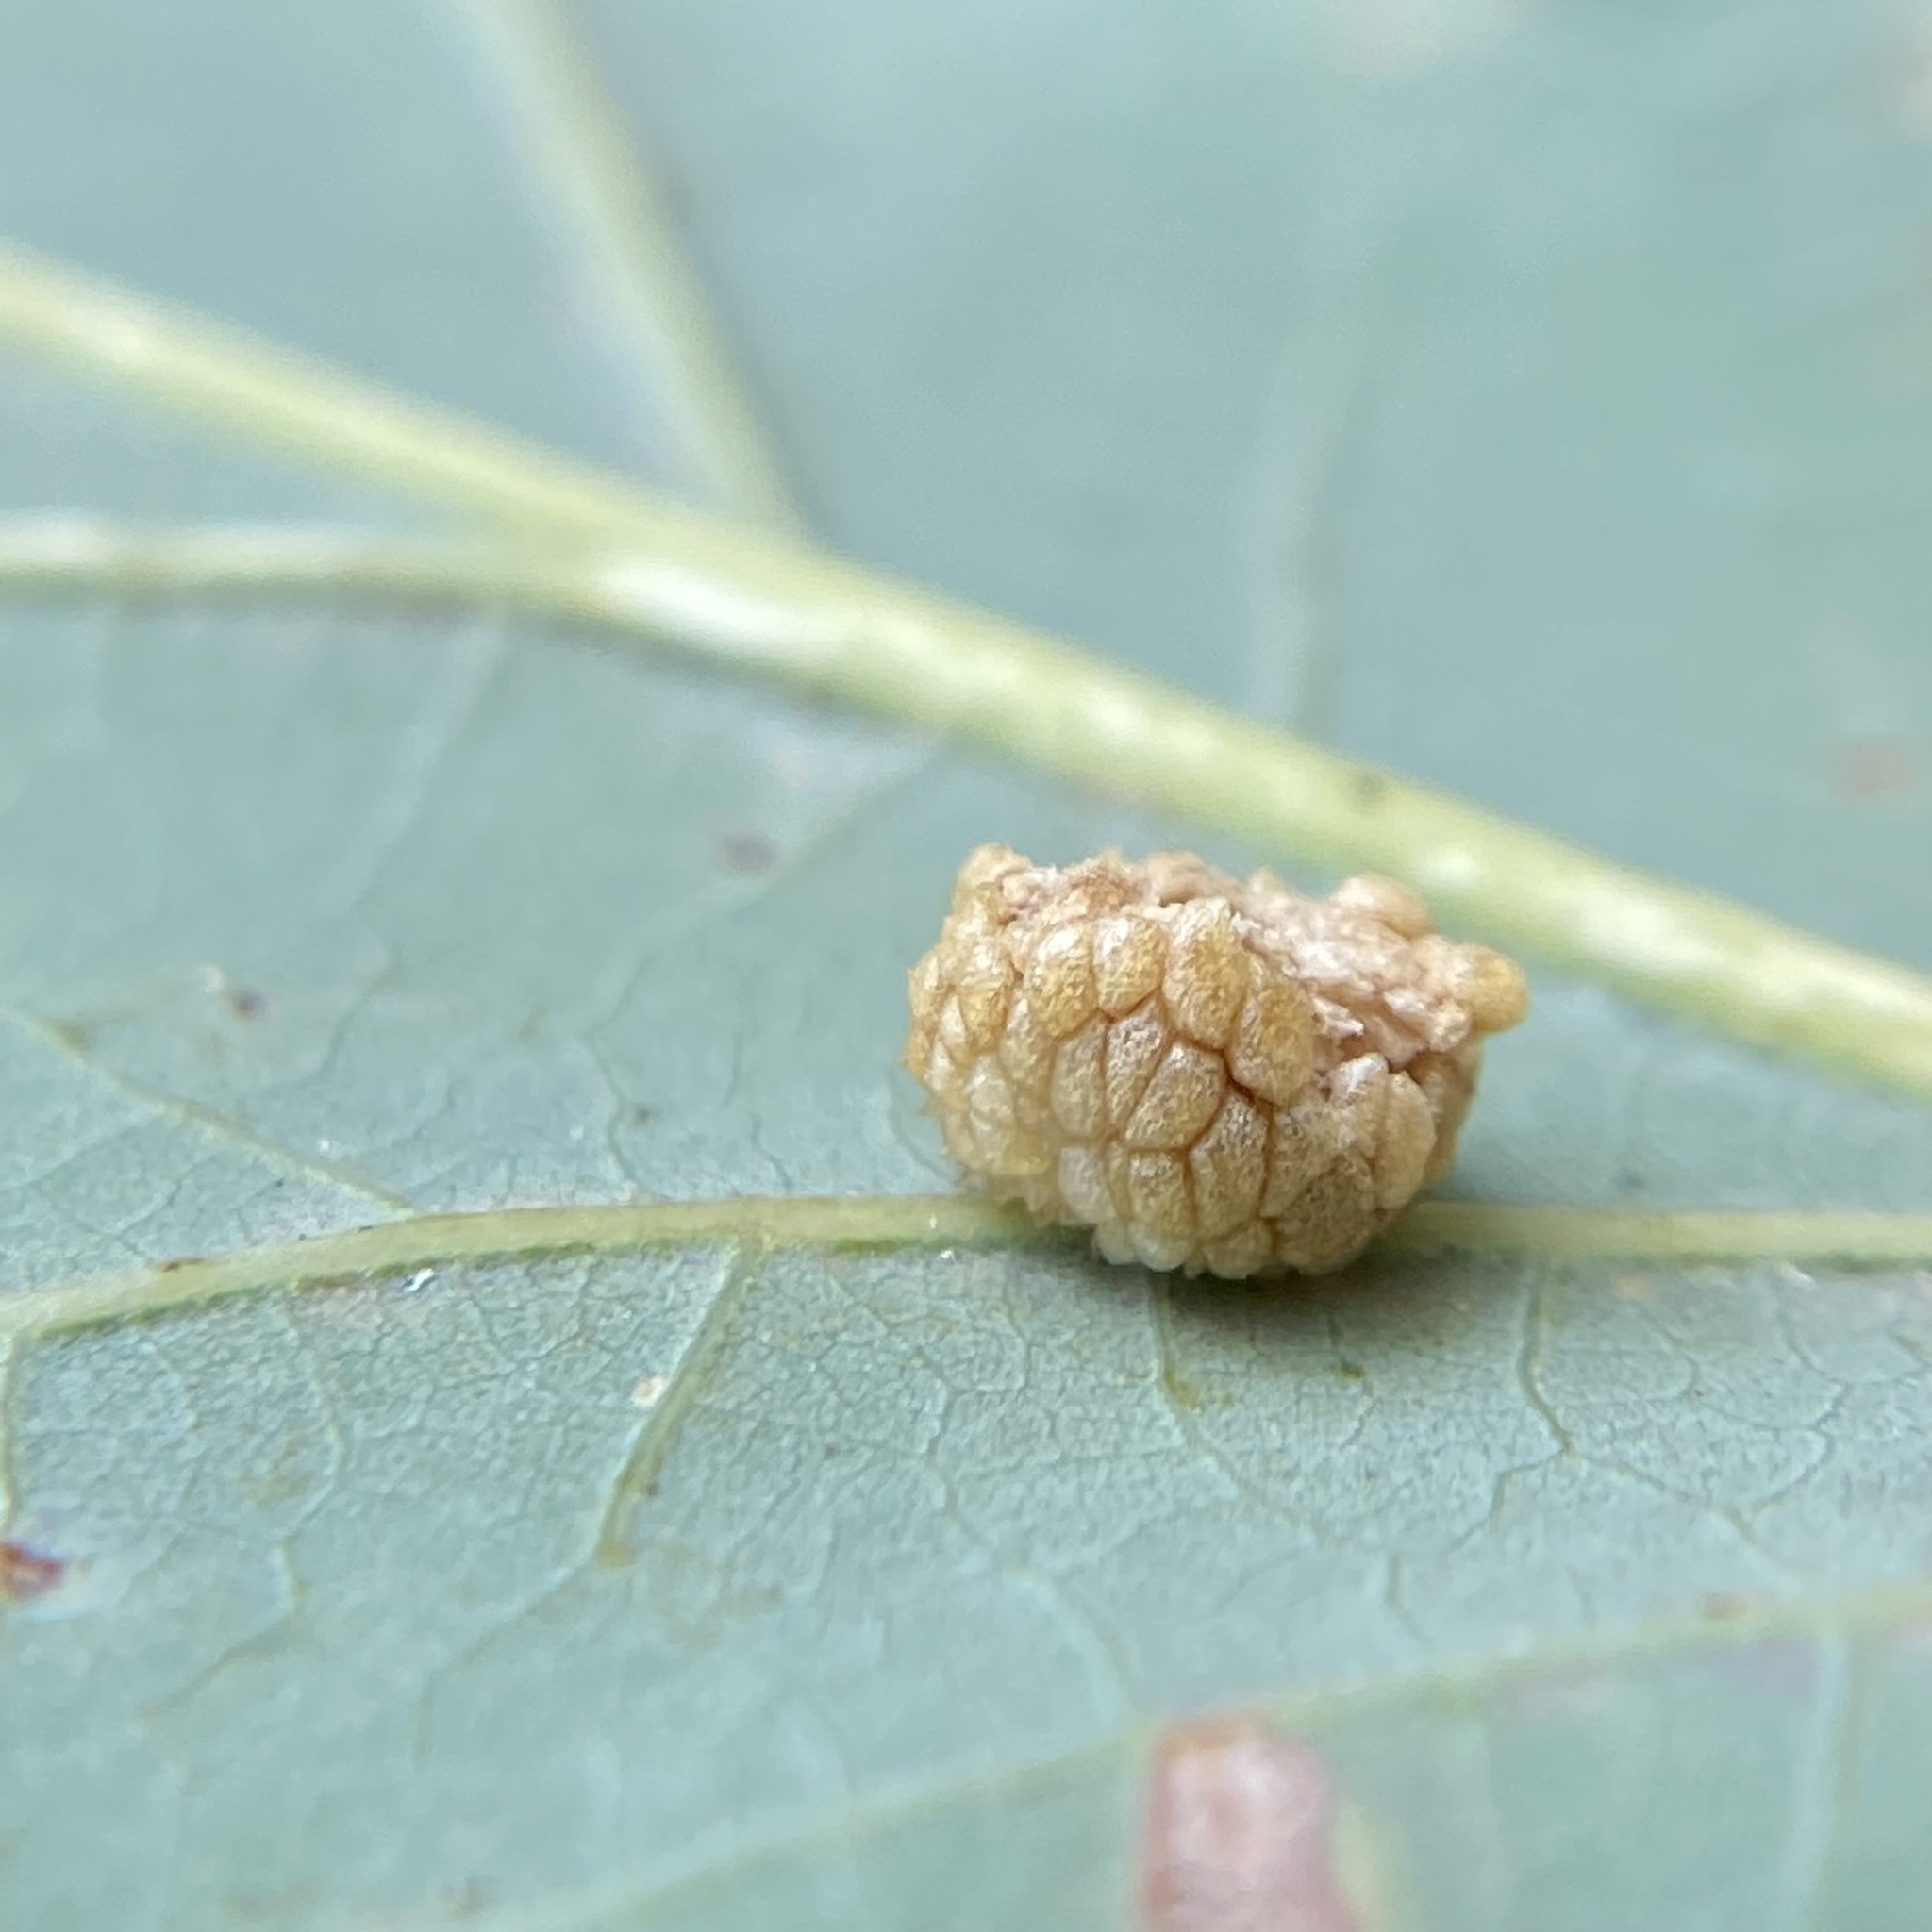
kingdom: Animalia
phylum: Arthropoda
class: Insecta
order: Hymenoptera
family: Cynipidae
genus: Acraspis
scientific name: Acraspis
